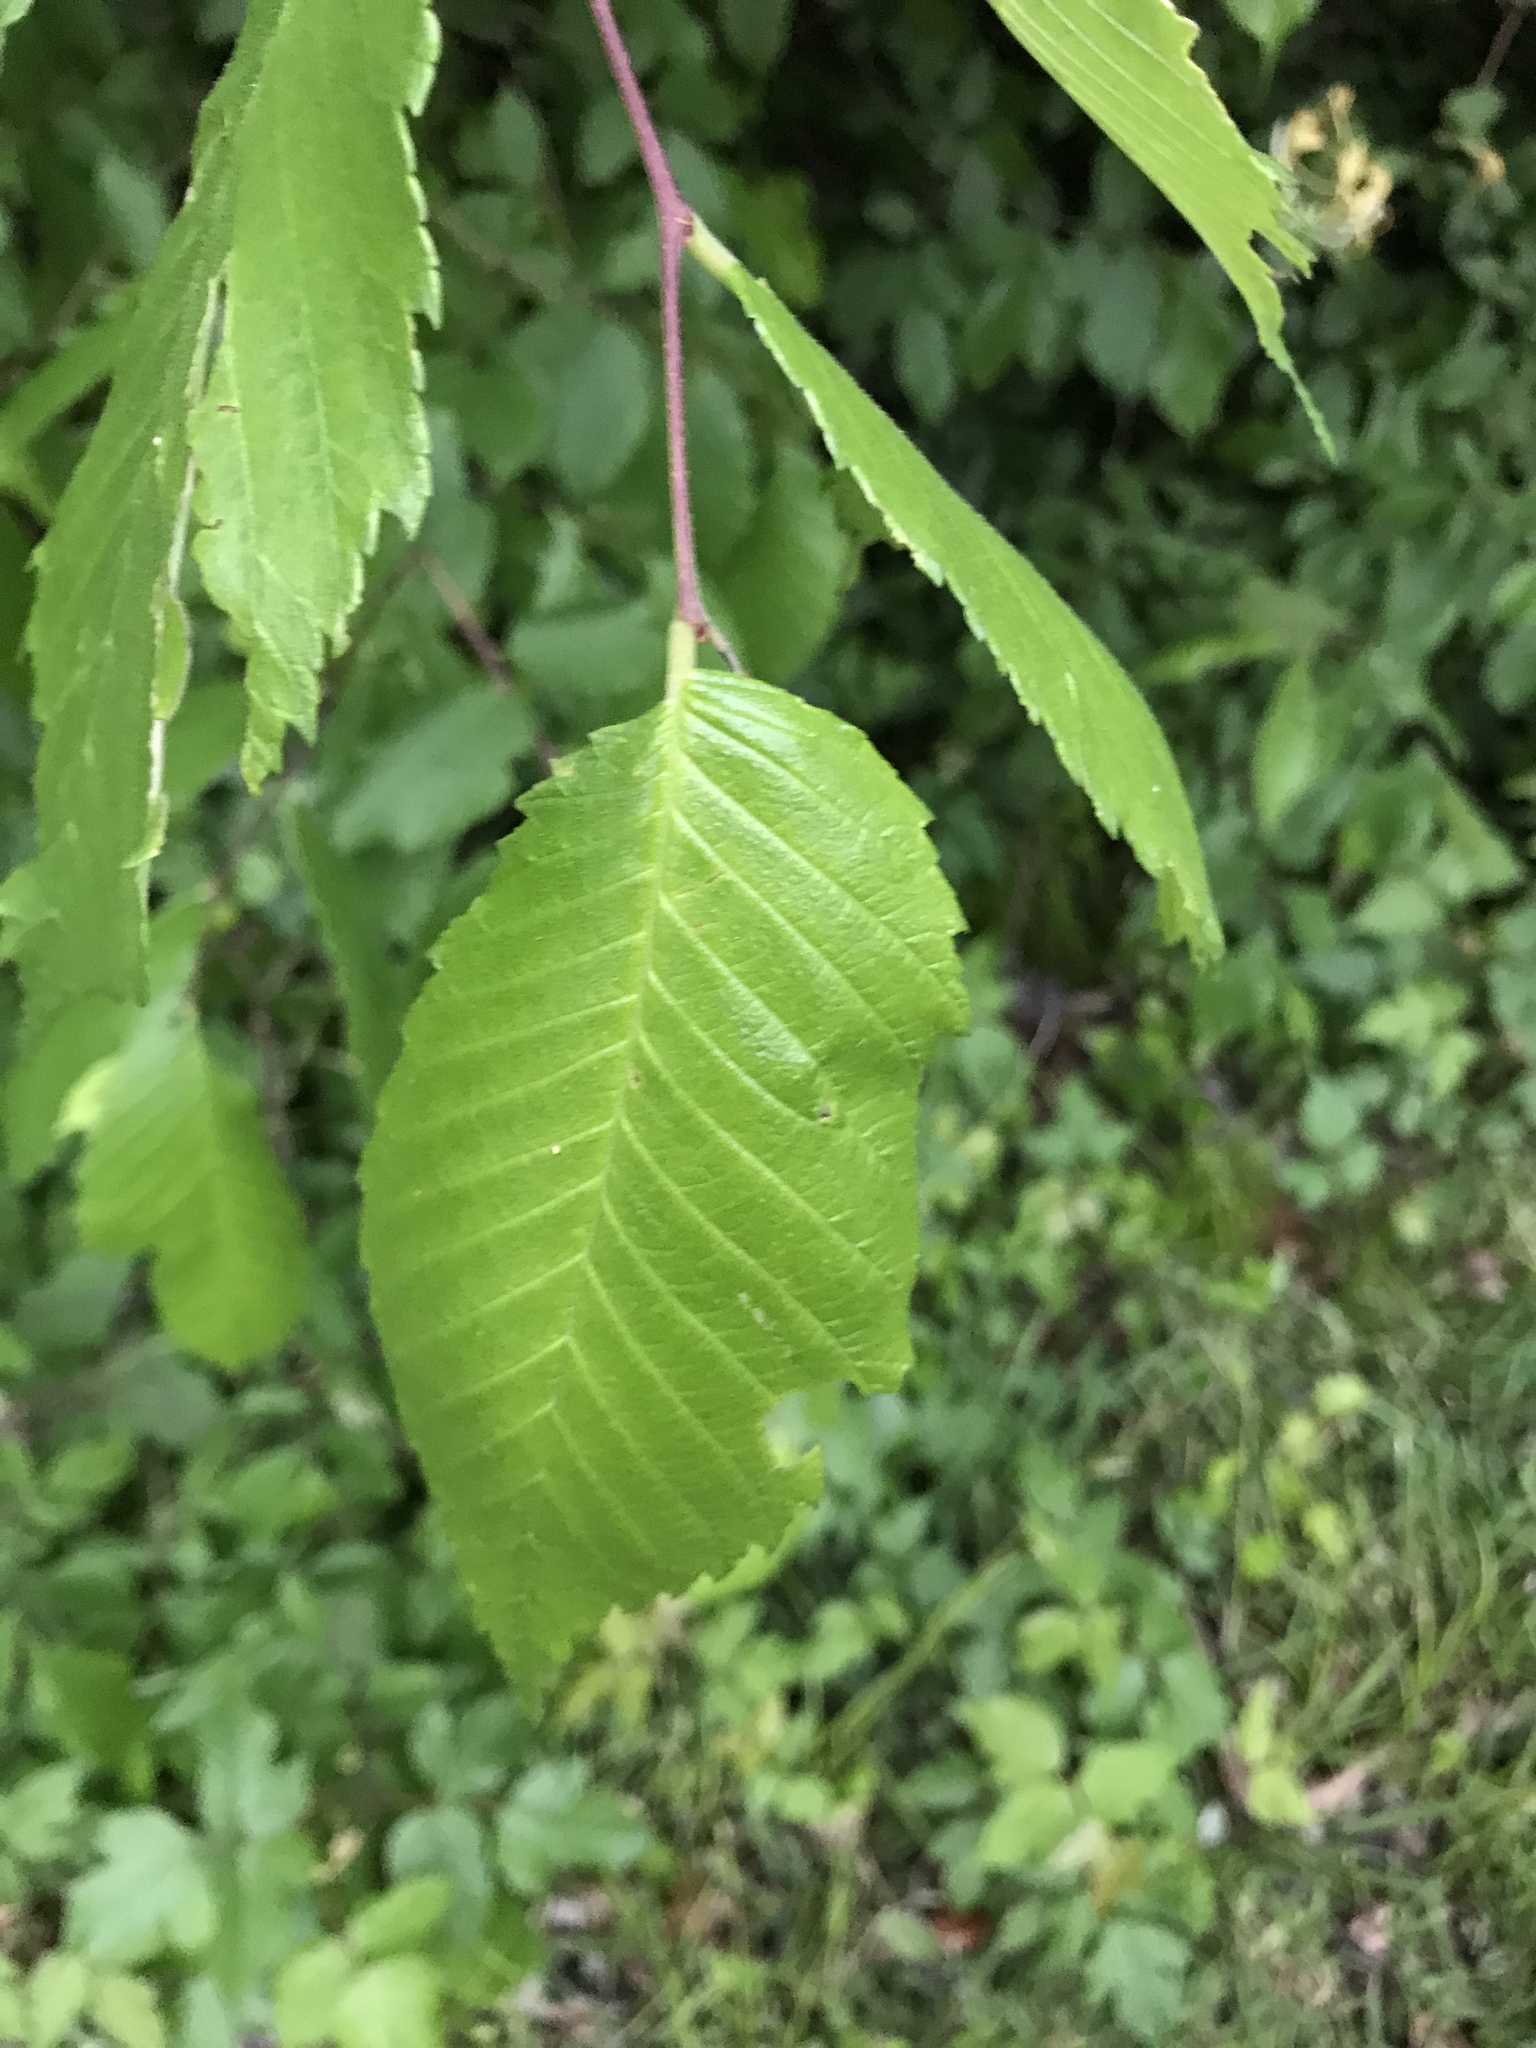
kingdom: Plantae
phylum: Tracheophyta
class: Magnoliopsida
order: Rosales
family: Ulmaceae
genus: Ulmus
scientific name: Ulmus americana
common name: American elm
